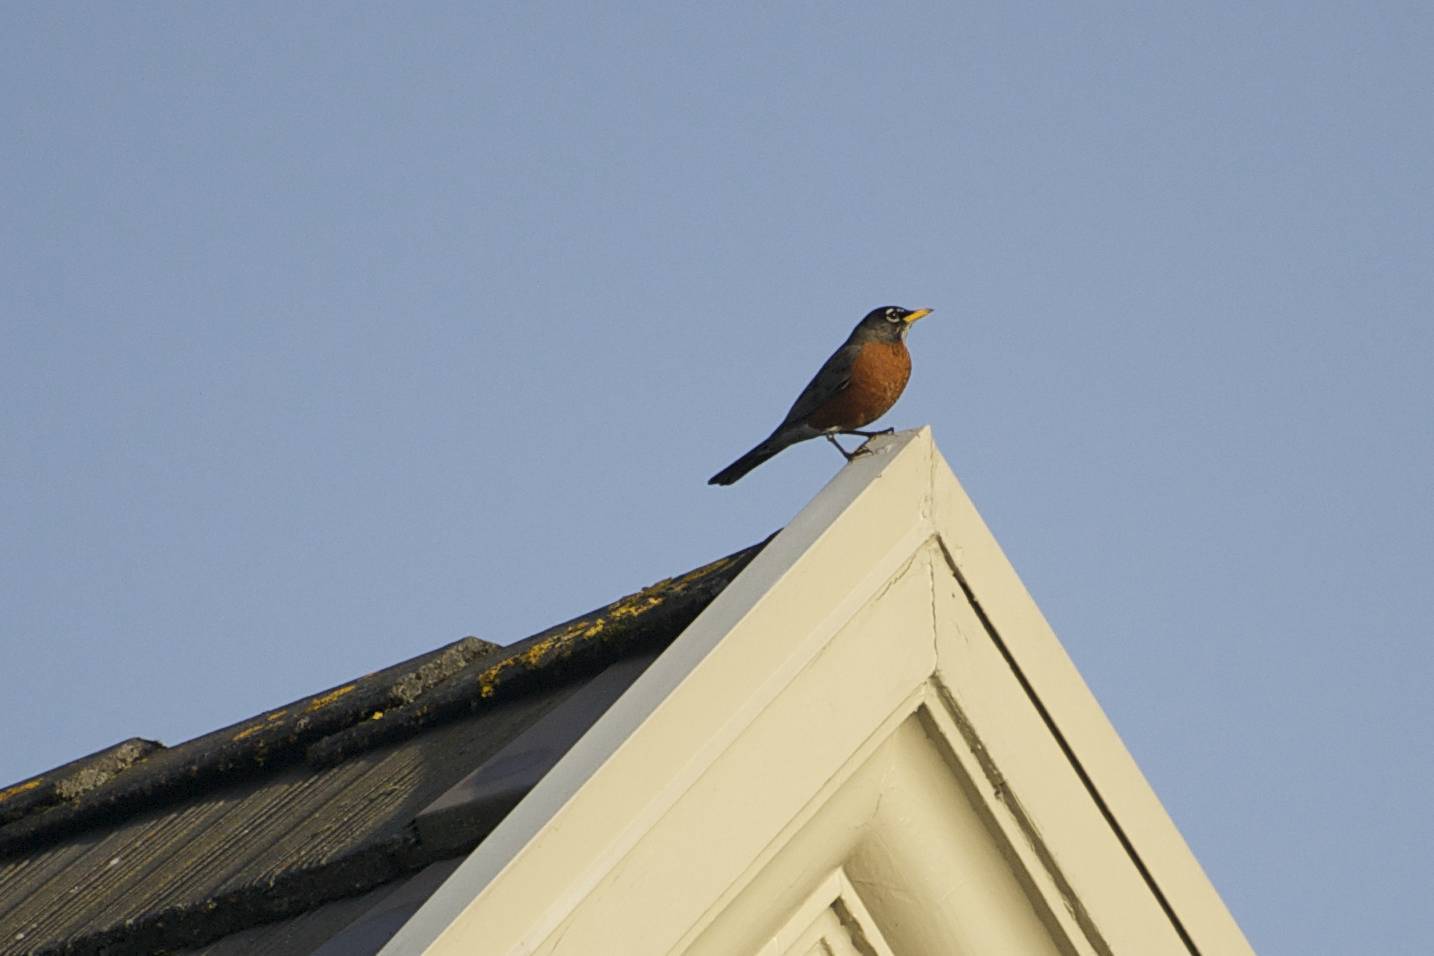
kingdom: Animalia
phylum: Chordata
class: Aves
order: Passeriformes
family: Turdidae
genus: Turdus
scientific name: Turdus migratorius
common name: American robin
